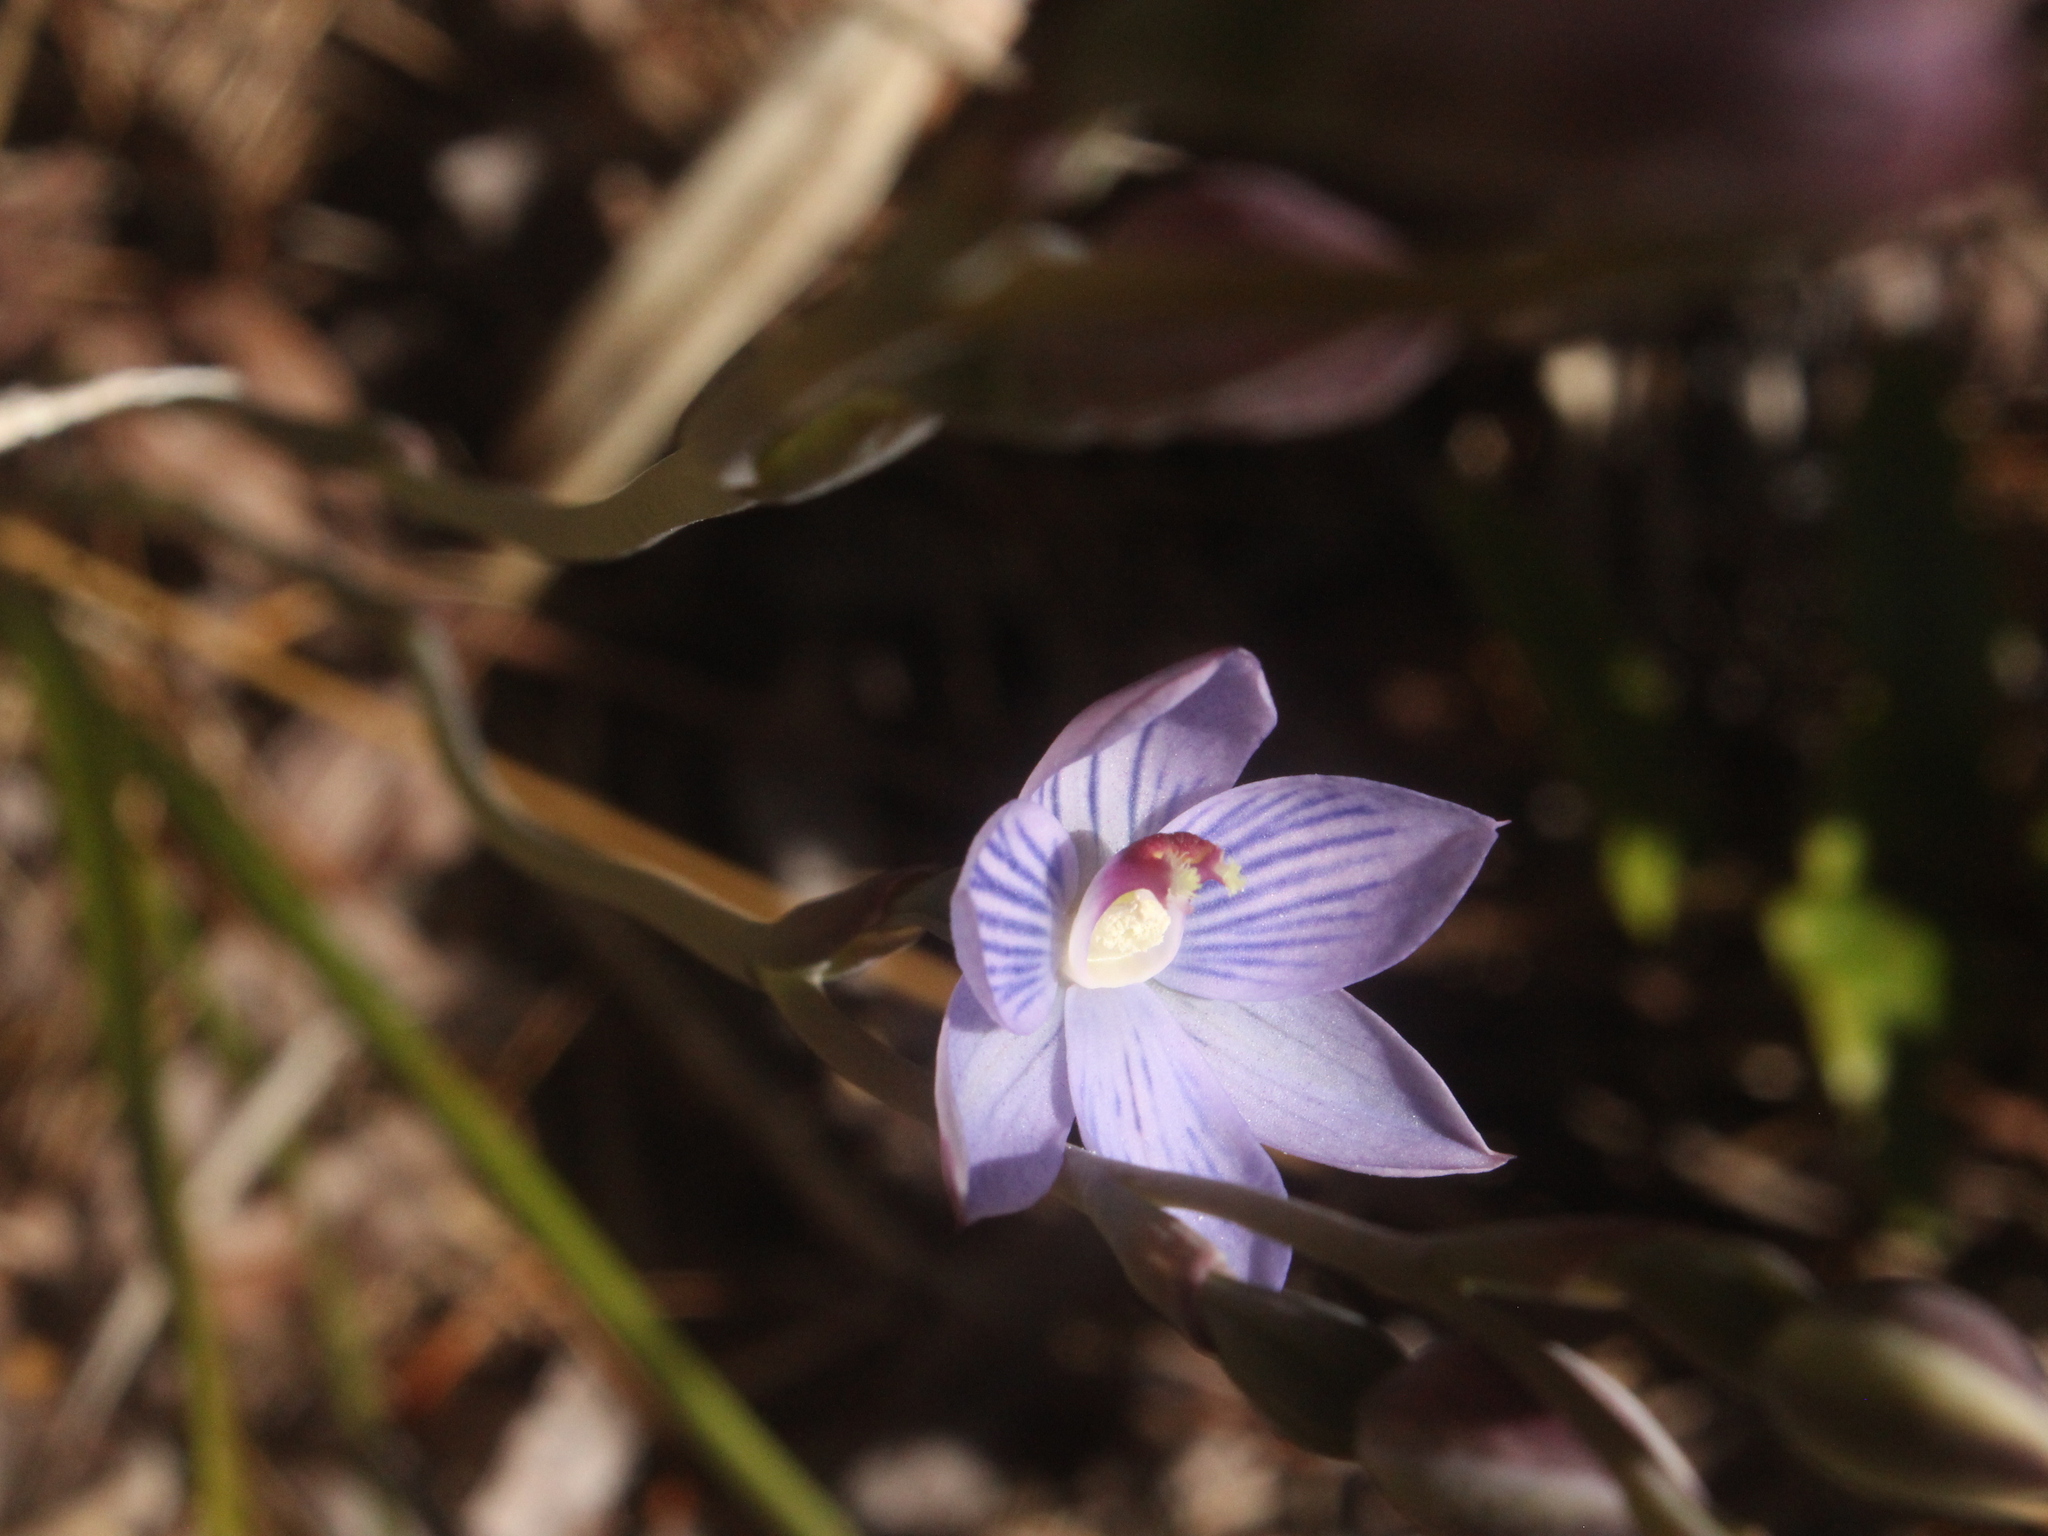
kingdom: Plantae
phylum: Tracheophyta
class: Liliopsida
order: Asparagales
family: Orchidaceae
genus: Thelymitra
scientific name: Thelymitra pulchella
